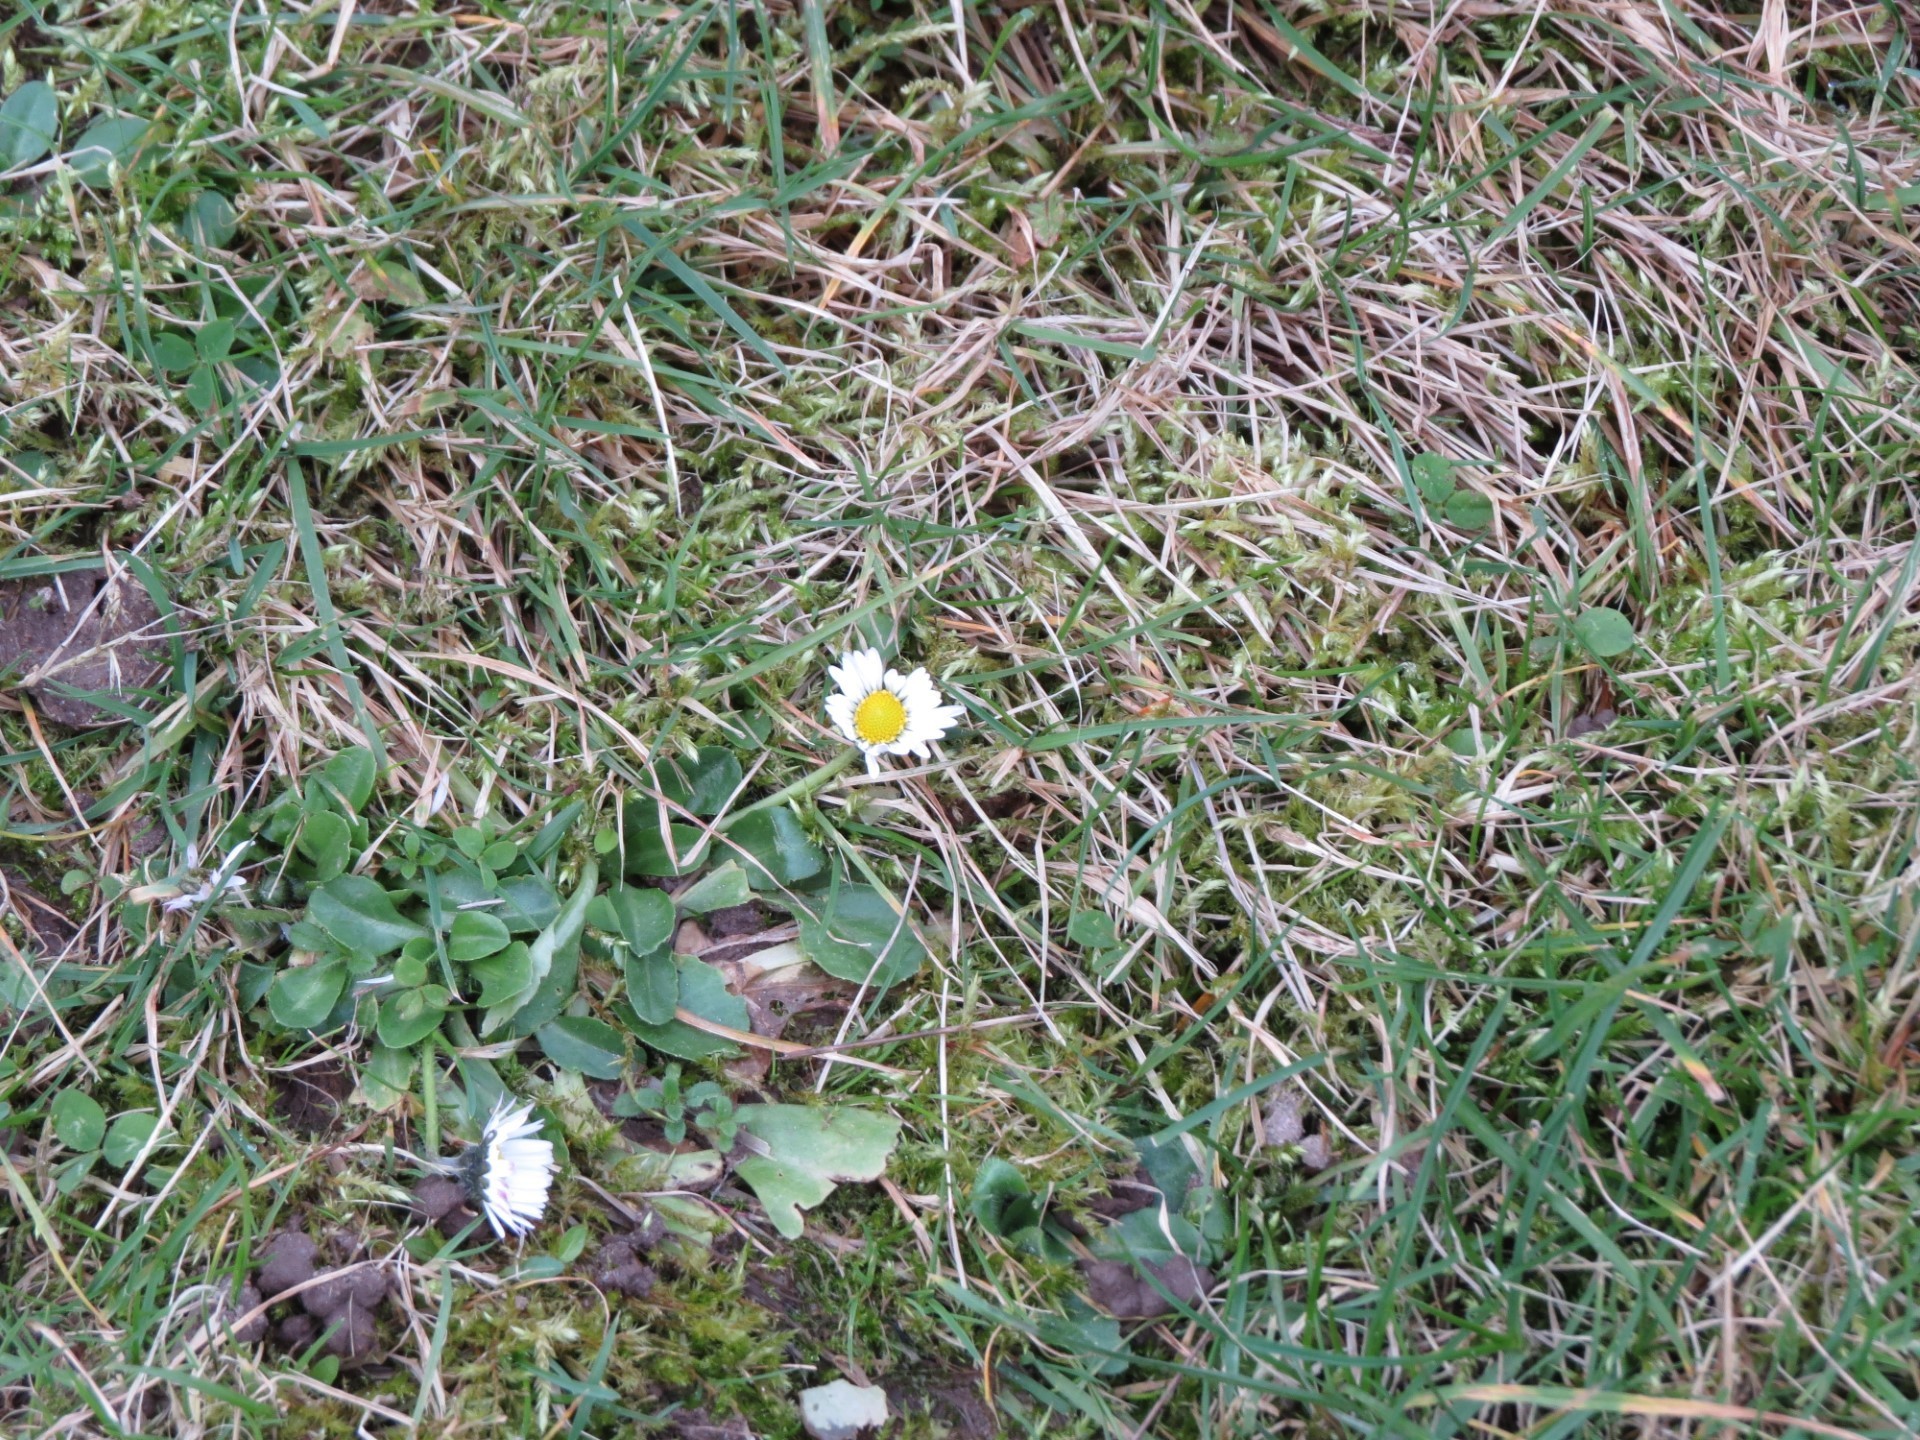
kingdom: Plantae
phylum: Tracheophyta
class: Magnoliopsida
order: Asterales
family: Asteraceae
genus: Bellis
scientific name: Bellis perennis
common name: Lawndaisy
